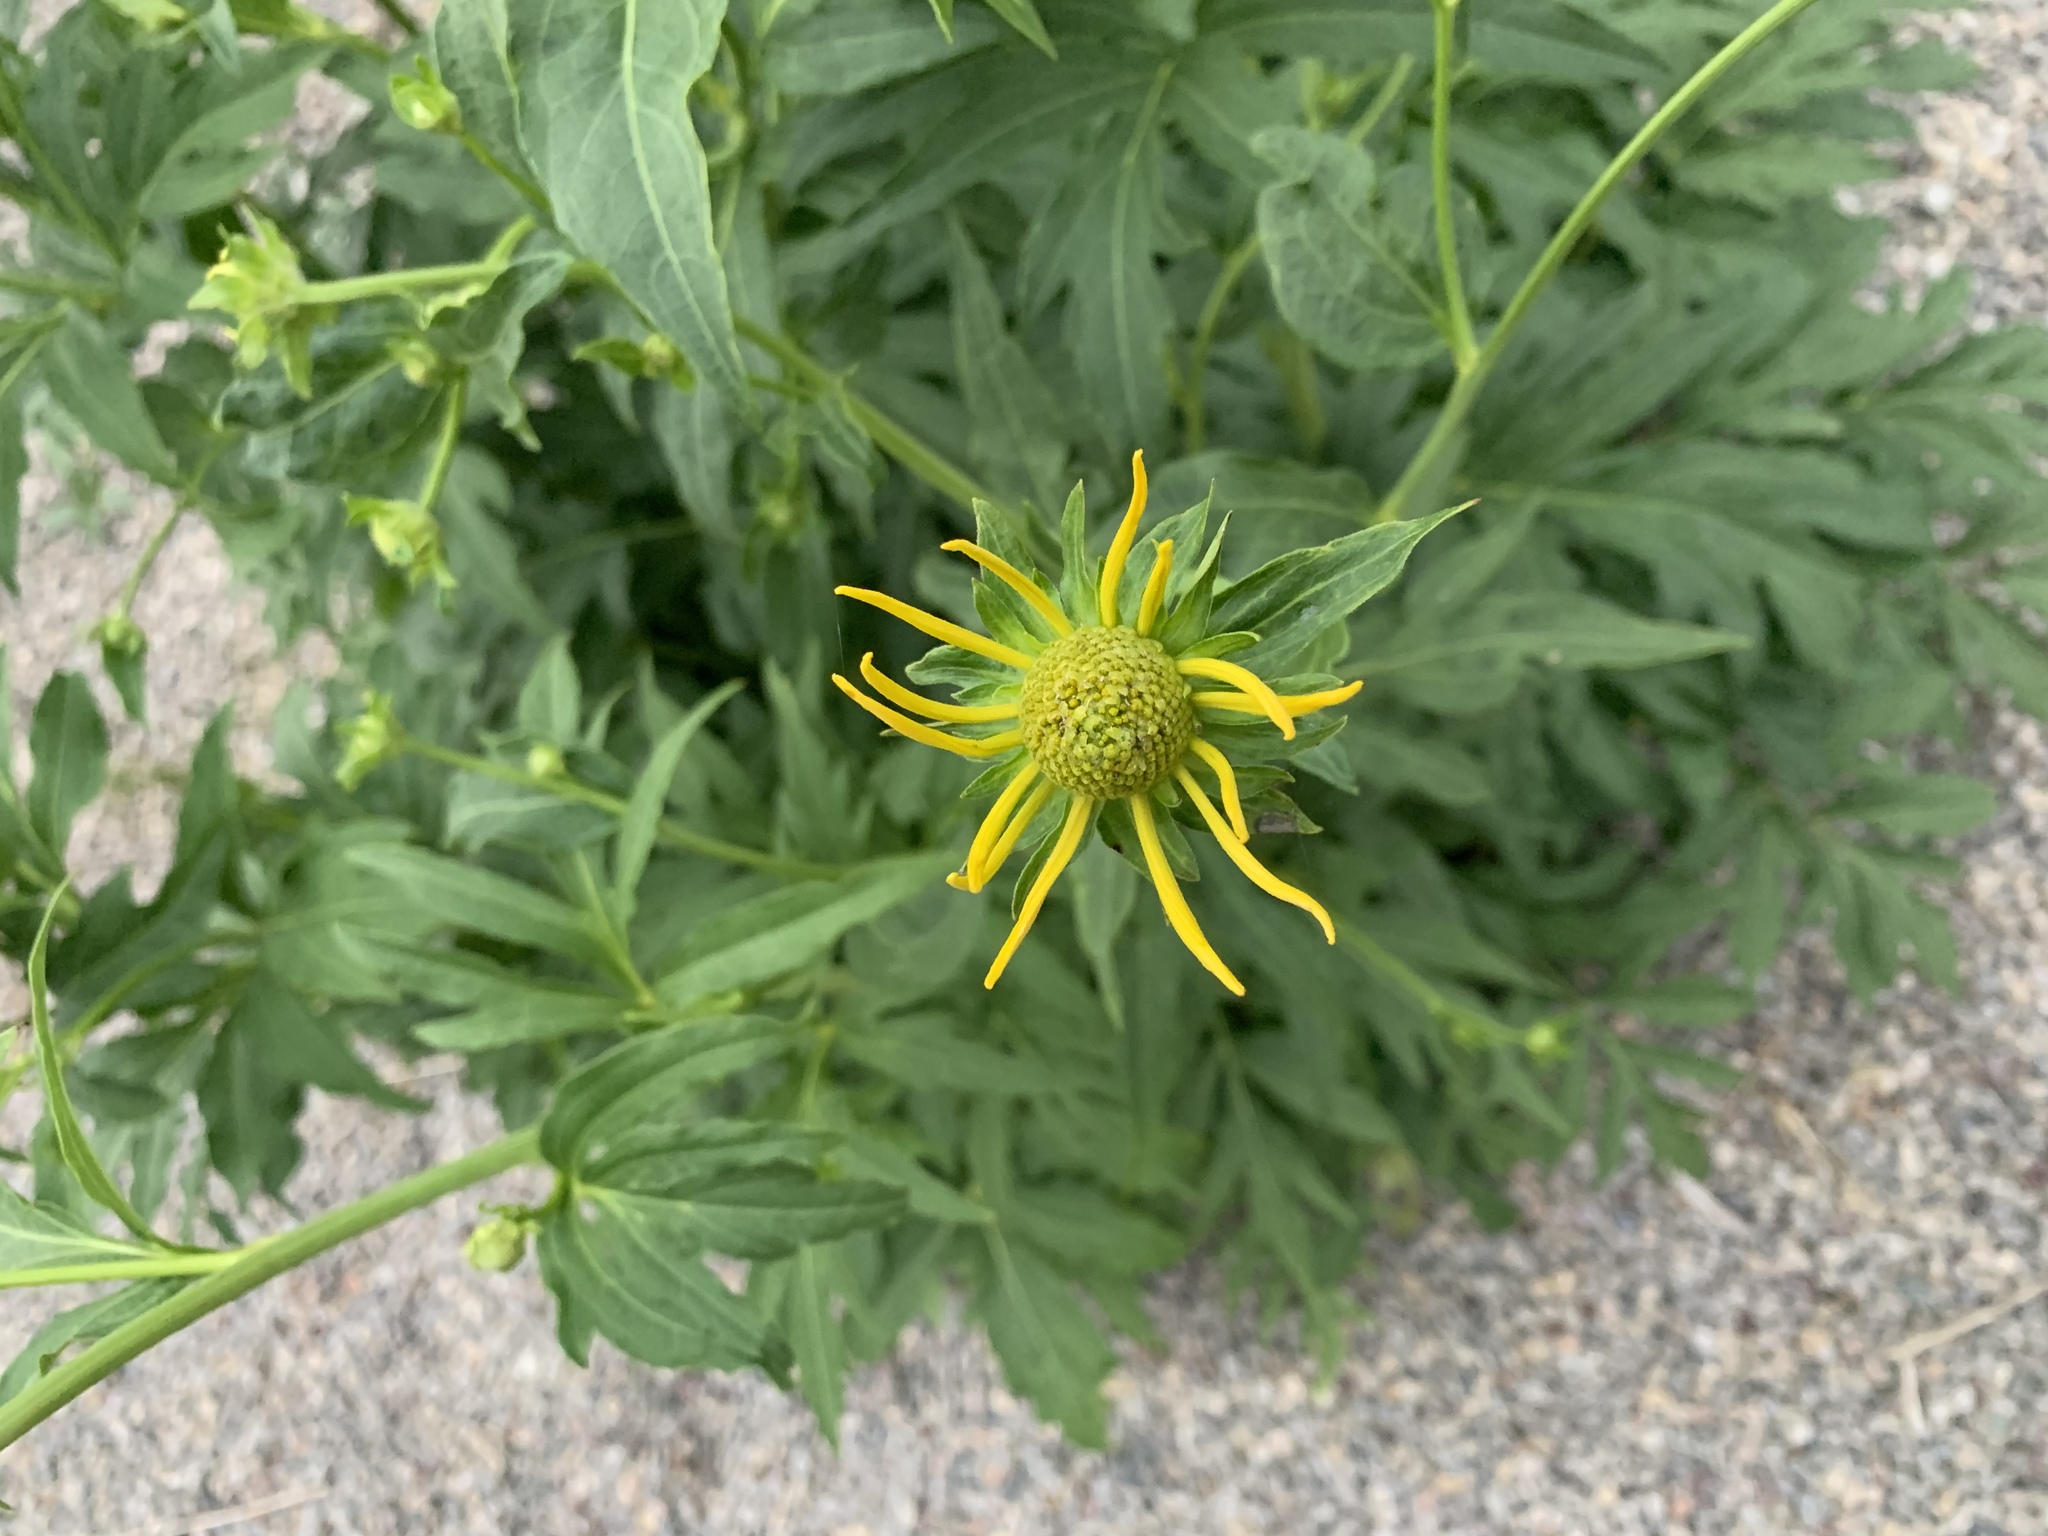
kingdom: Plantae
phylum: Tracheophyta
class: Magnoliopsida
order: Asterales
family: Asteraceae
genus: Rudbeckia
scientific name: Rudbeckia laciniata
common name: Coneflower
